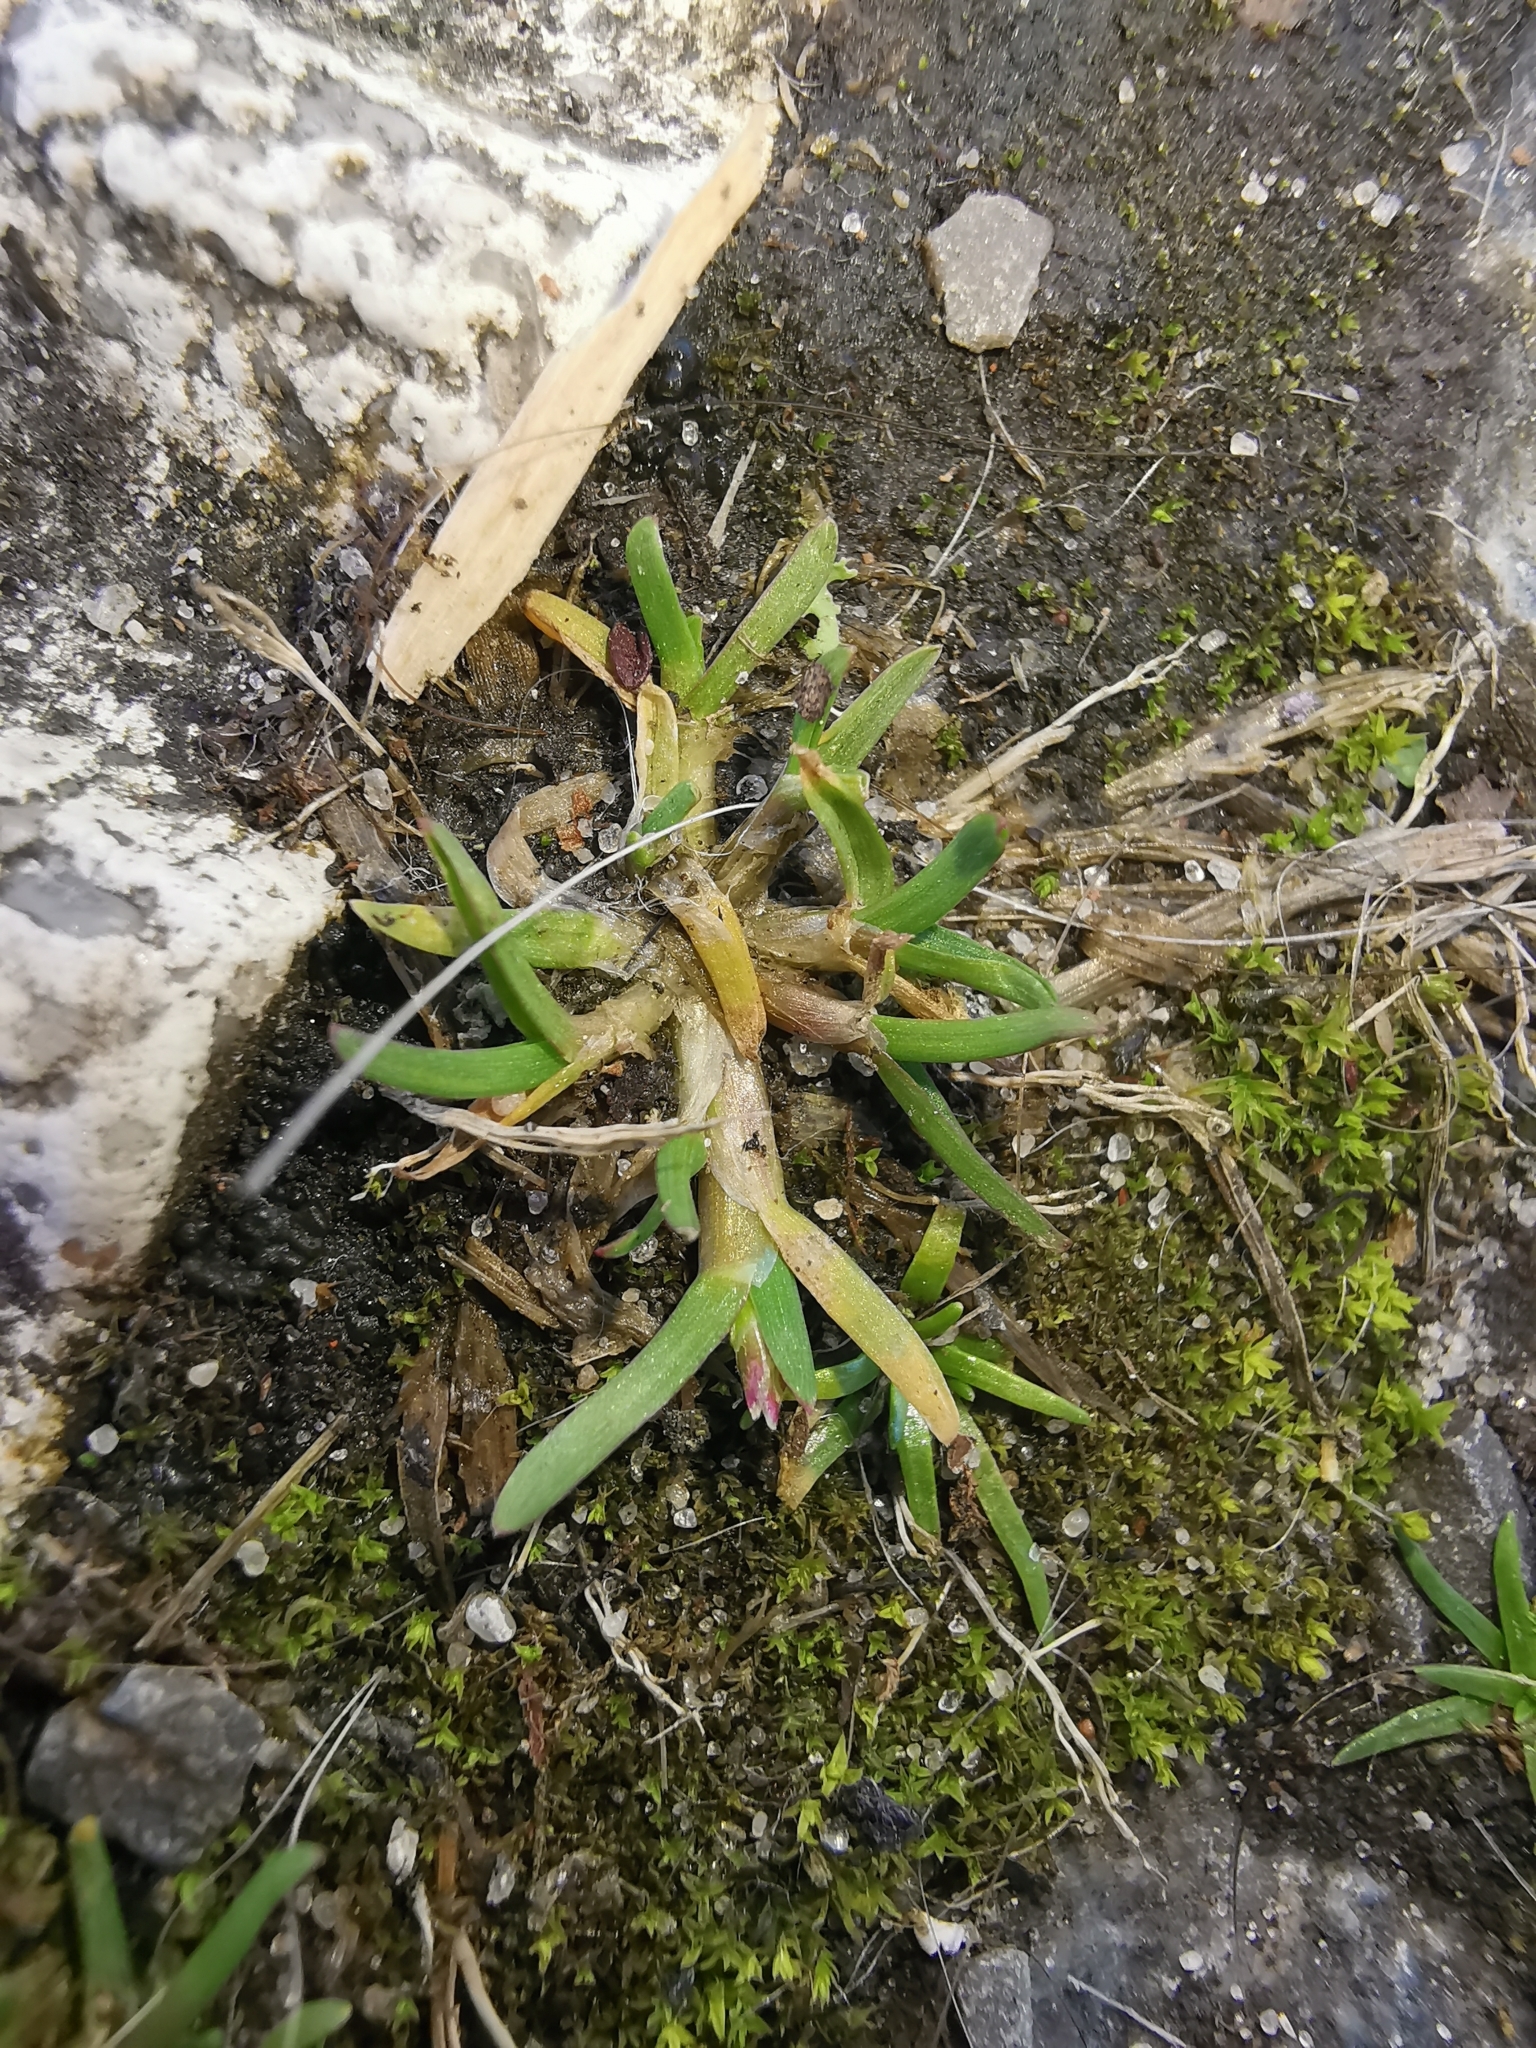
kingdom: Plantae
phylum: Tracheophyta
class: Liliopsida
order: Poales
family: Poaceae
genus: Poa
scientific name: Poa annua
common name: Annual bluegrass
